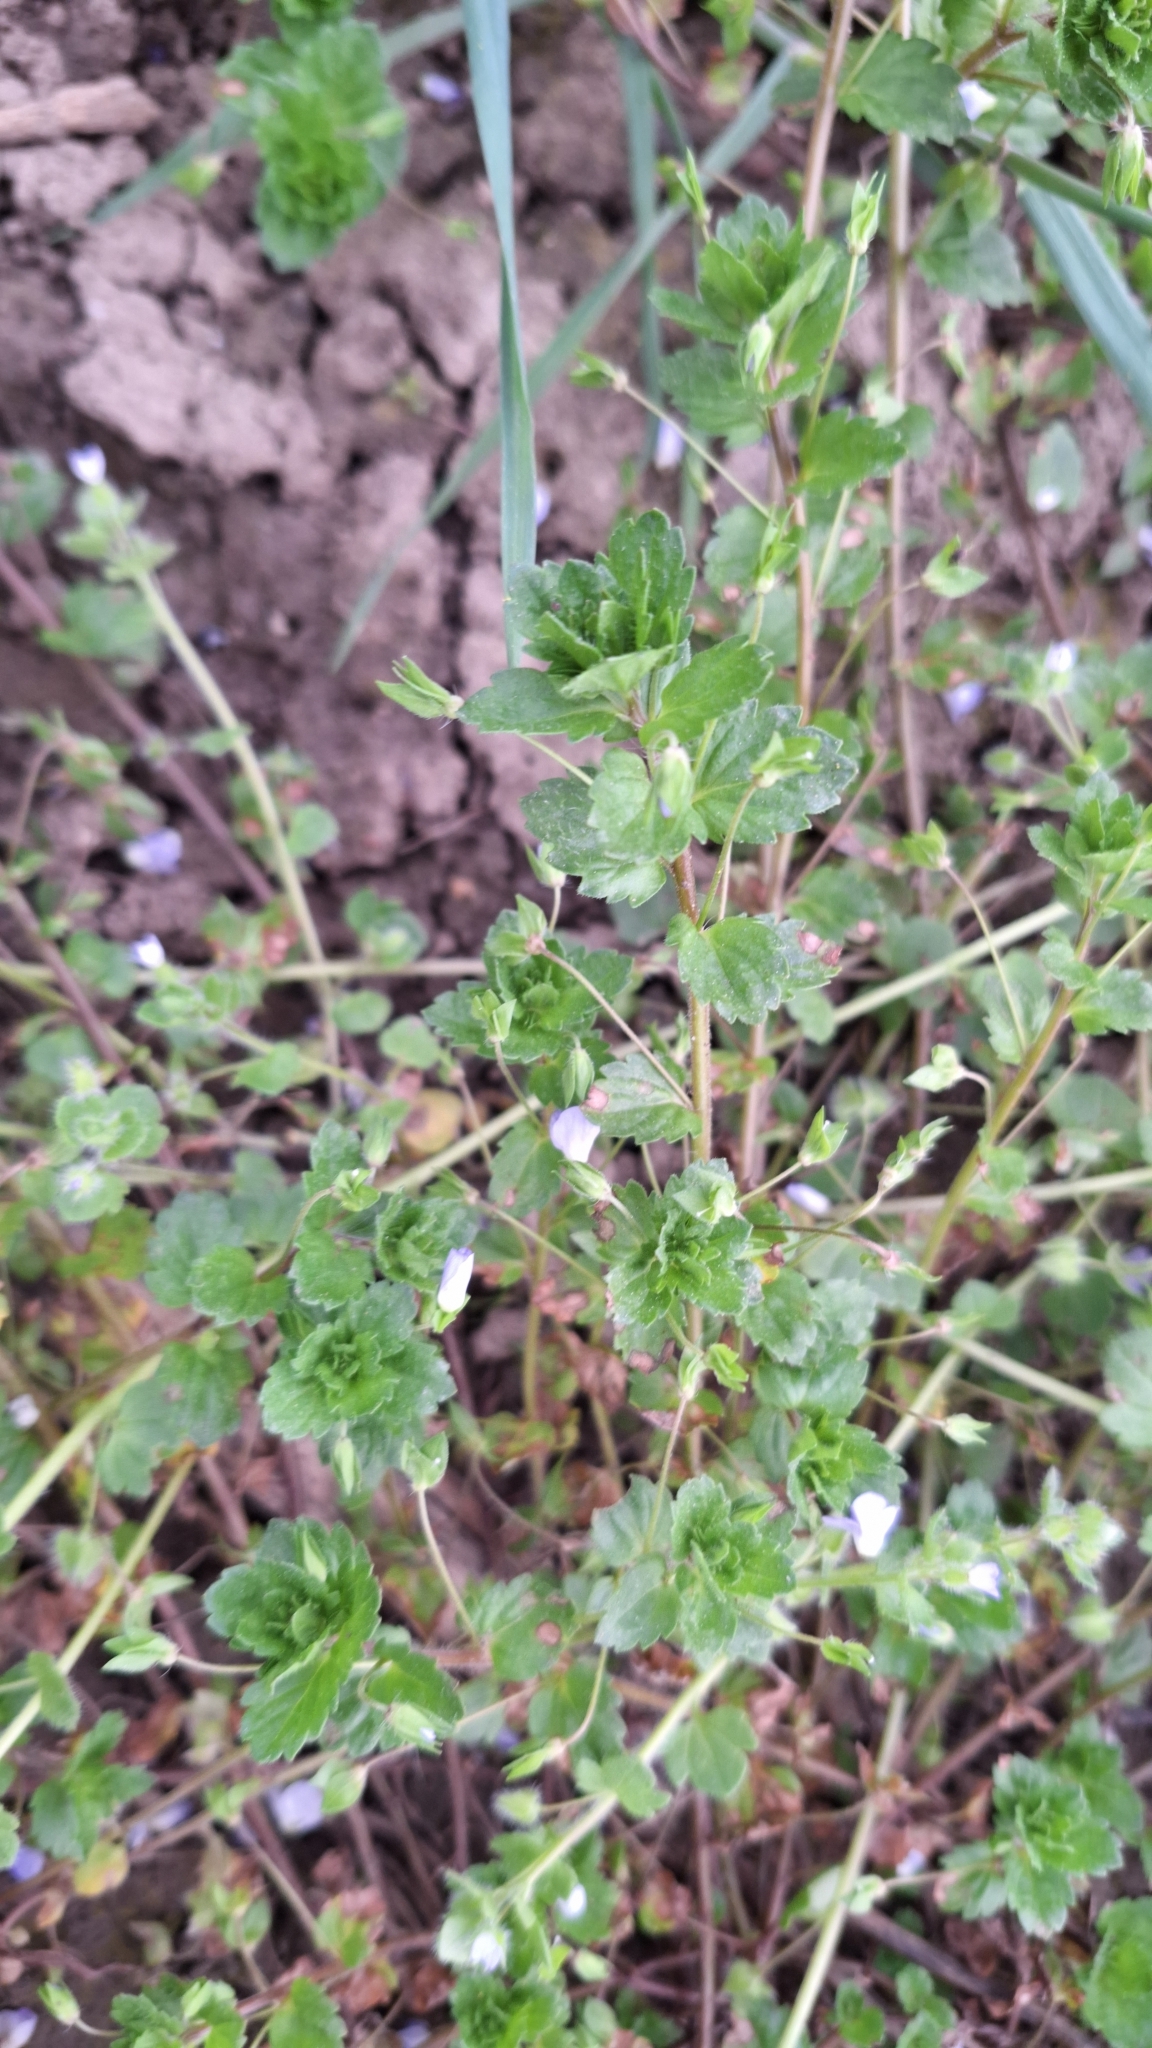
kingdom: Plantae
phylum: Tracheophyta
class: Magnoliopsida
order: Lamiales
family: Plantaginaceae
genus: Veronica
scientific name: Veronica persica
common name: Common field-speedwell
